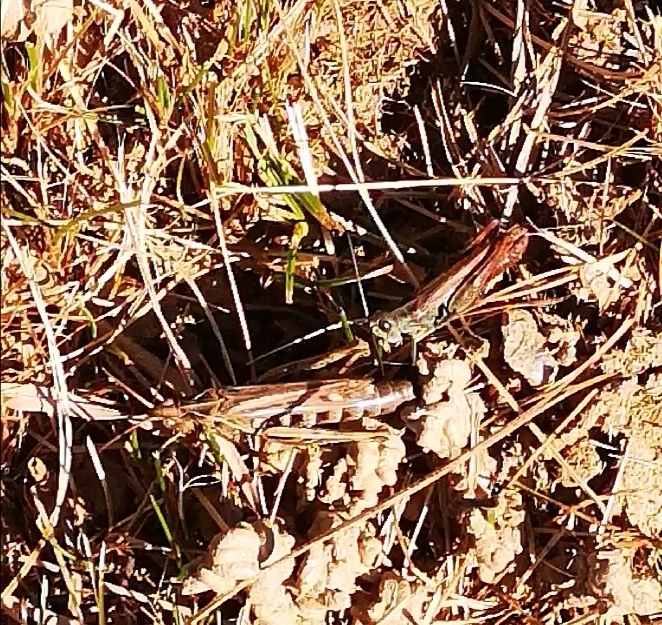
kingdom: Animalia
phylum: Arthropoda
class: Insecta
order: Orthoptera
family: Acrididae
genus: Chorthippus
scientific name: Chorthippus biguttulus
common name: Bow-winged grasshopper
